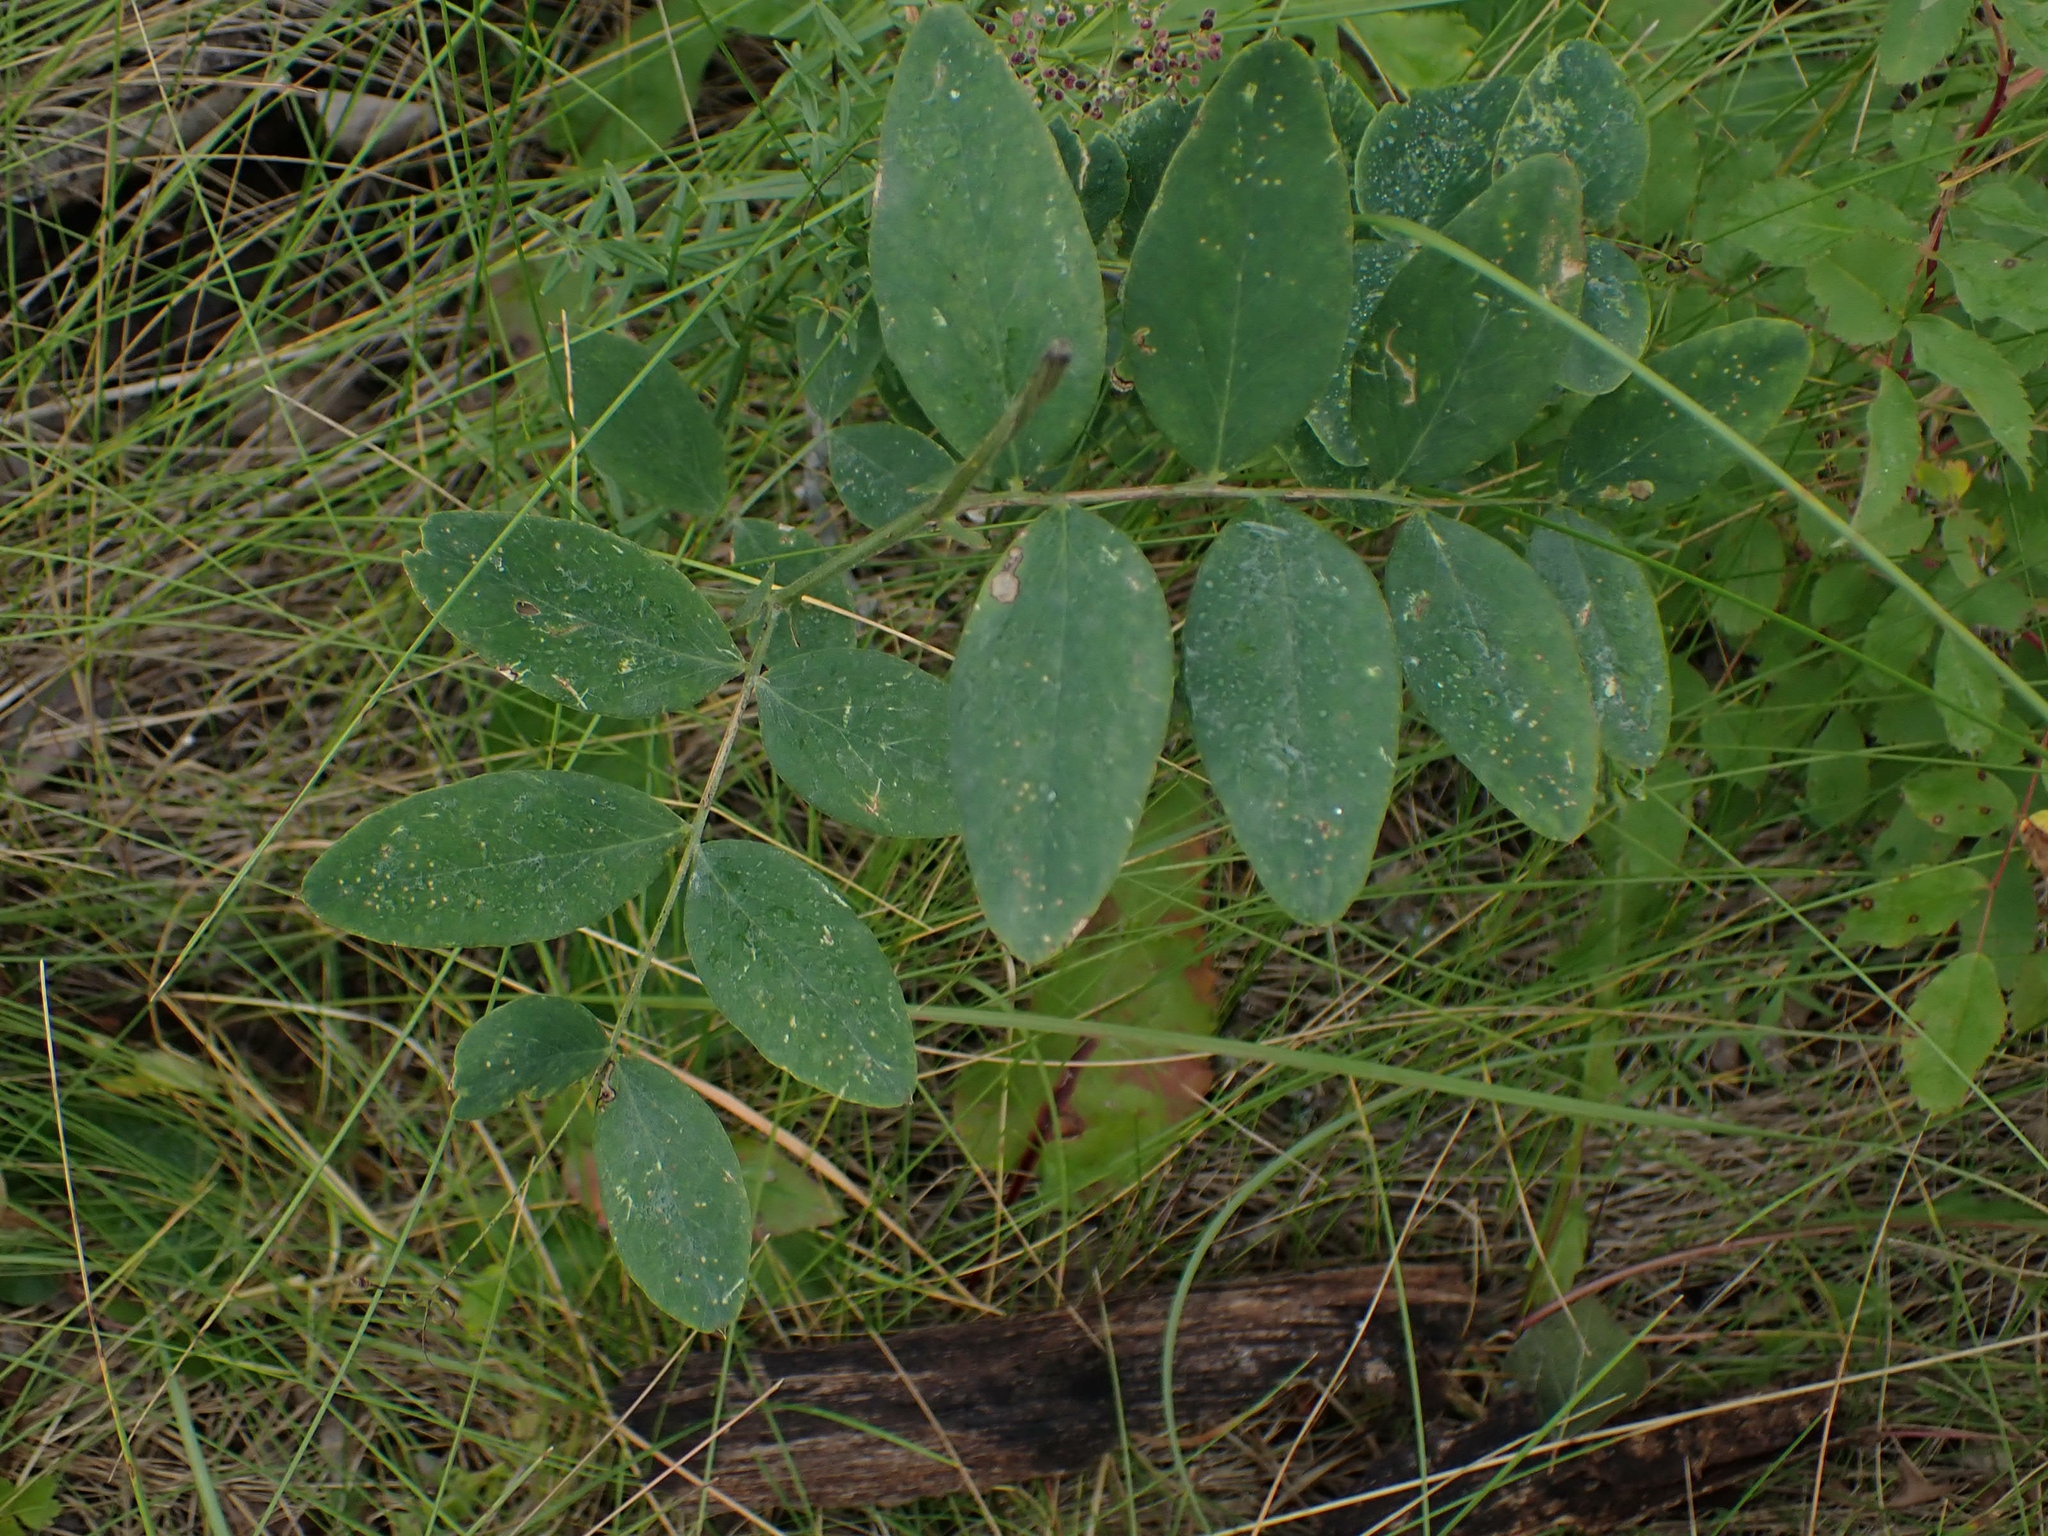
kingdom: Plantae
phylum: Tracheophyta
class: Magnoliopsida
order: Fabales
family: Fabaceae
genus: Lathyrus
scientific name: Lathyrus venosus
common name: Forest-pea
